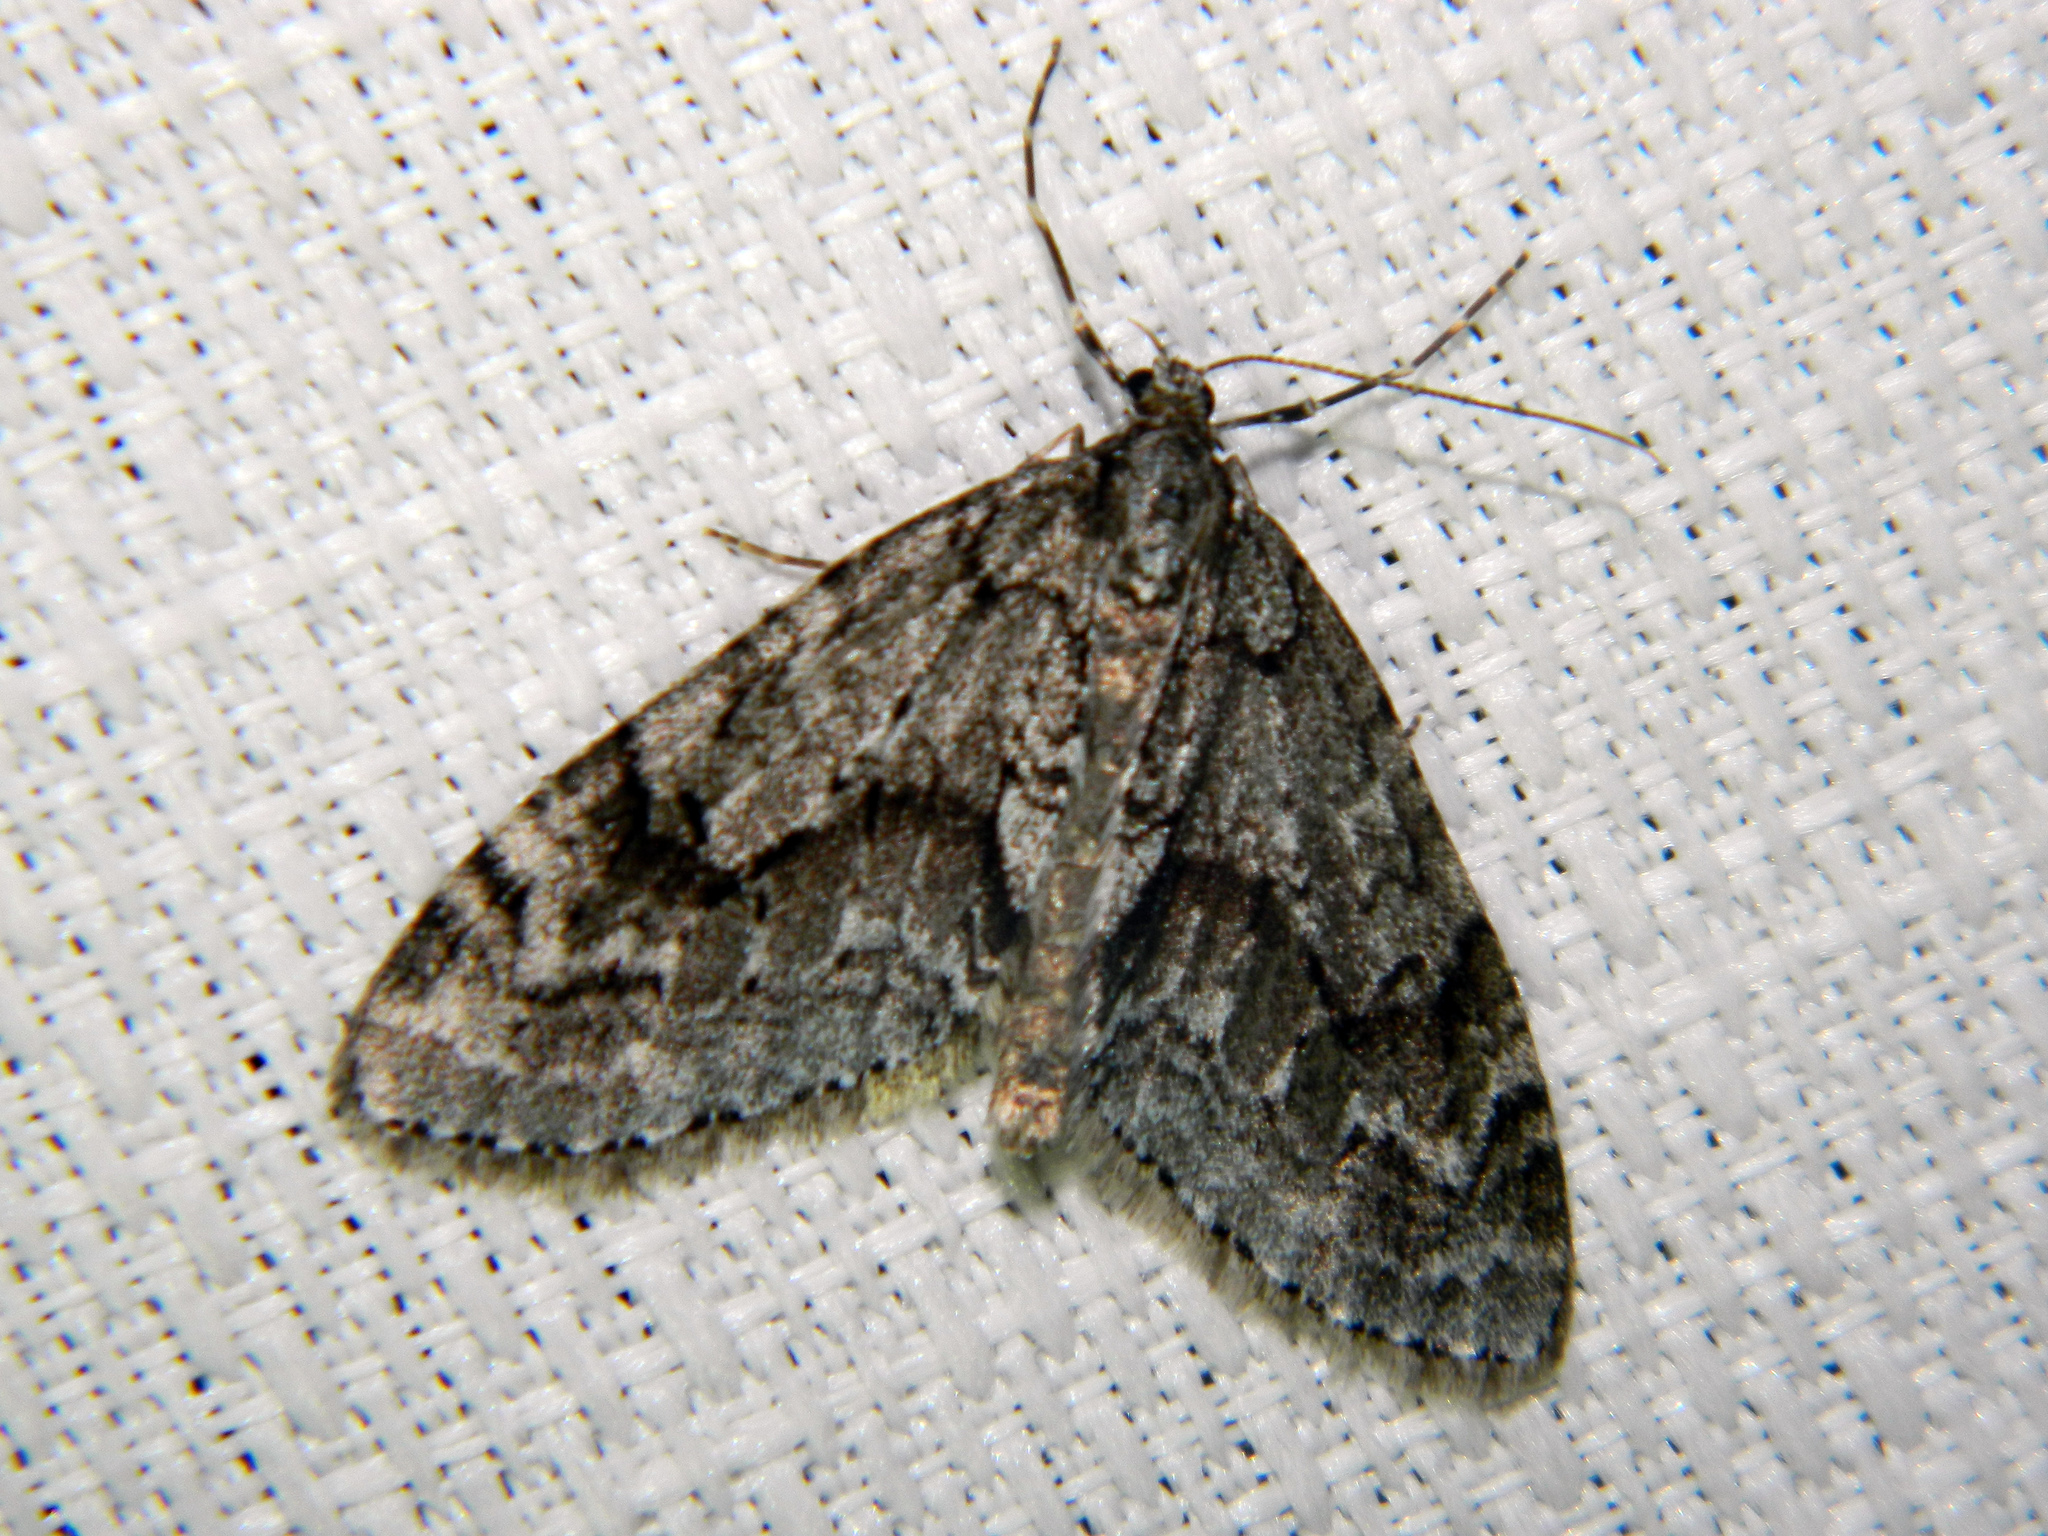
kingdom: Animalia
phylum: Arthropoda
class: Insecta
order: Lepidoptera
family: Geometridae
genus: Cladara
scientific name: Cladara limitaria
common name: Mottled gray carpet
